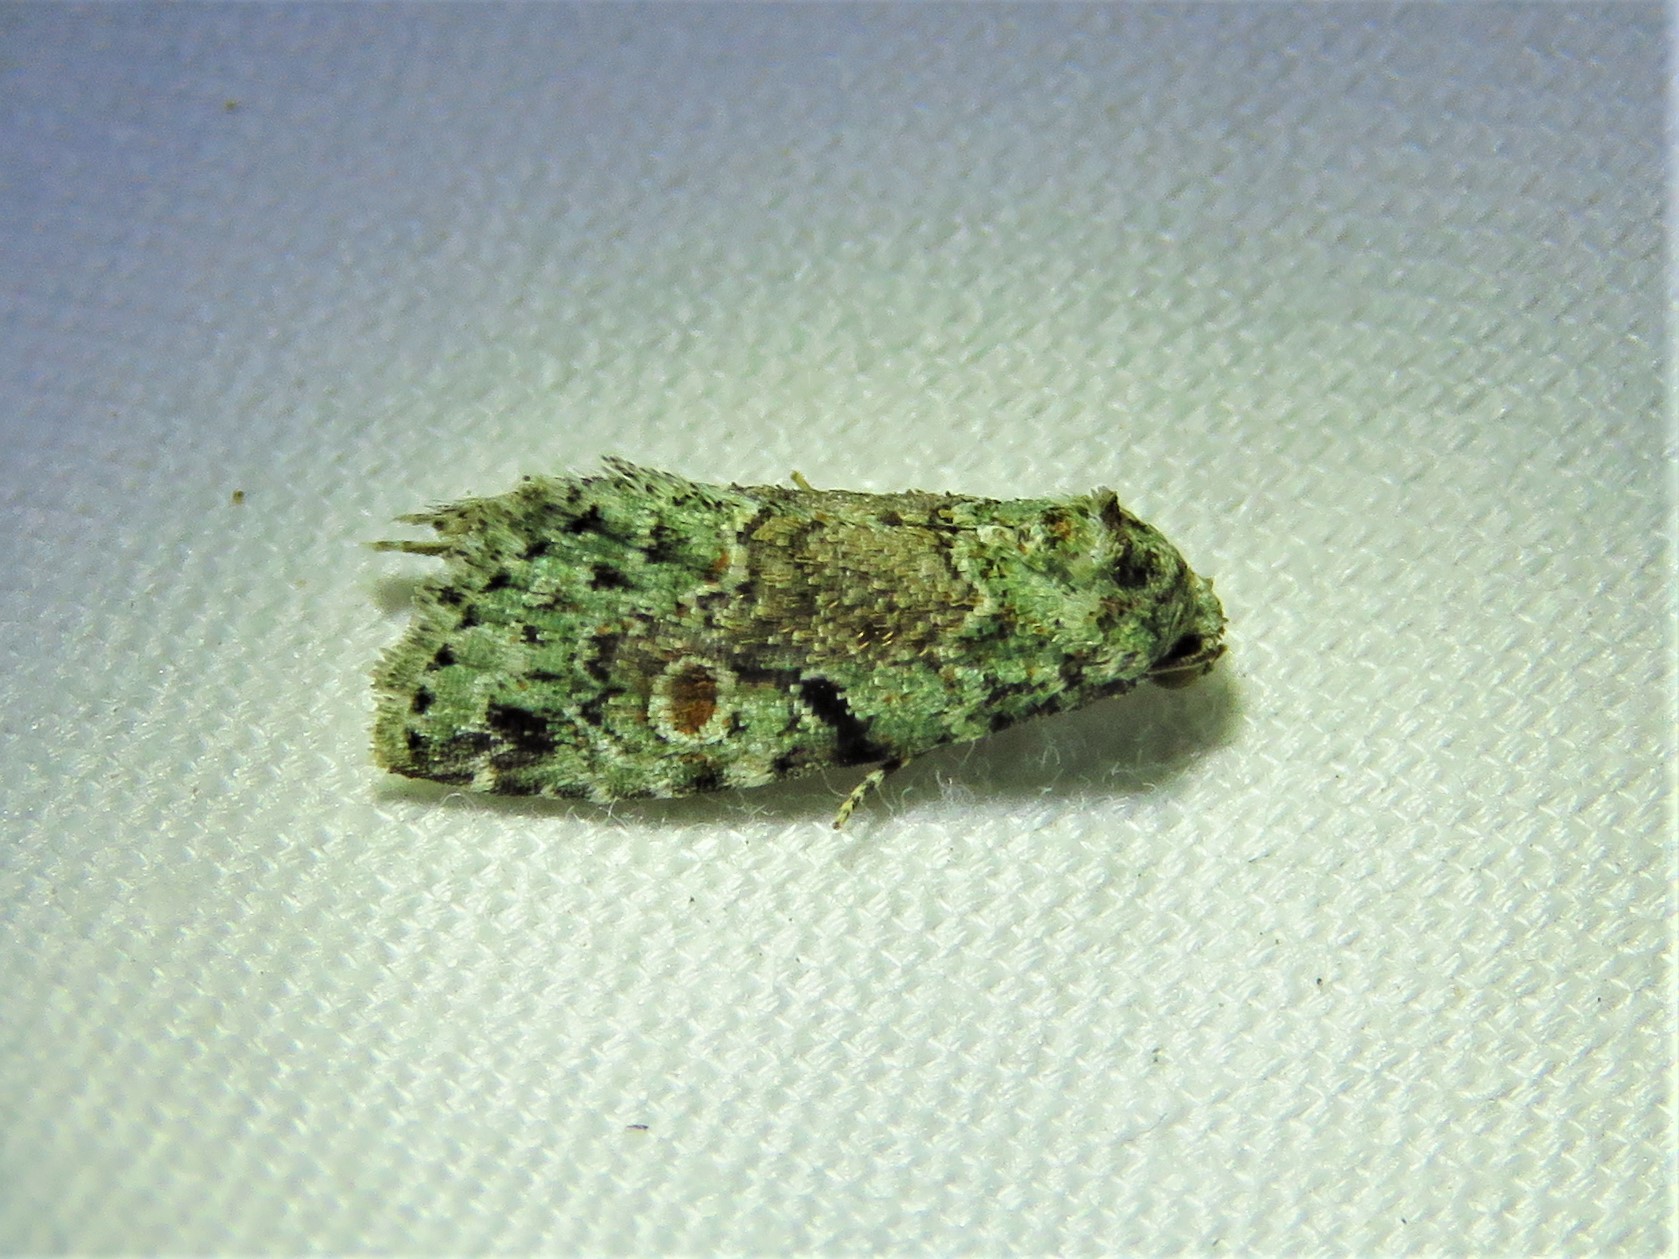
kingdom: Animalia
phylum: Arthropoda
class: Insecta
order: Lepidoptera
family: Noctuidae
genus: Maliattha
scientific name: Maliattha concinnimacula
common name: Red-spotted glyph
